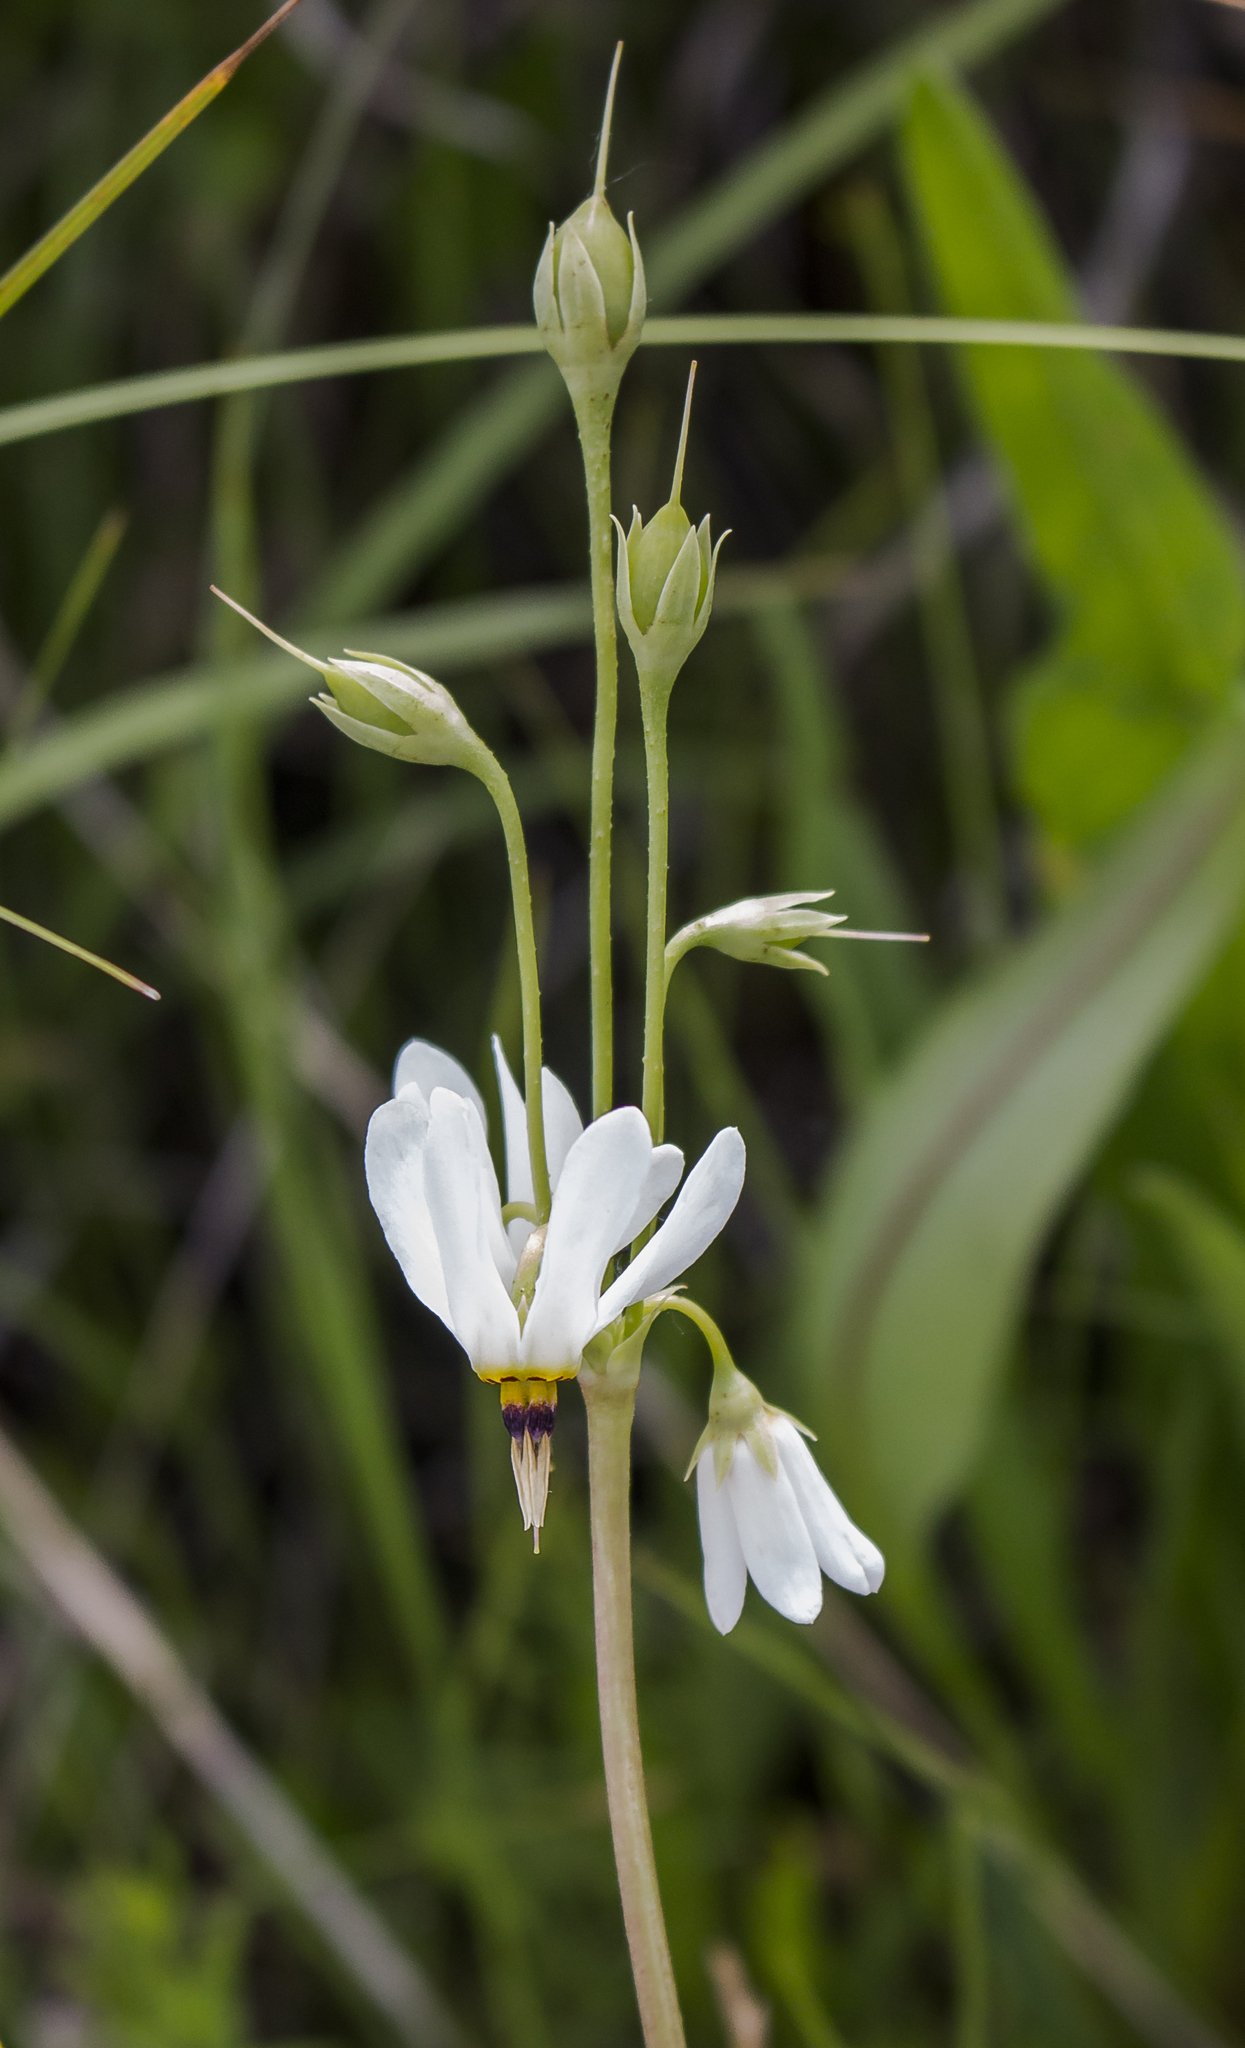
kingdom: Plantae
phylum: Tracheophyta
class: Magnoliopsida
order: Ericales
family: Primulaceae
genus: Dodecatheon
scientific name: Dodecatheon meadia
